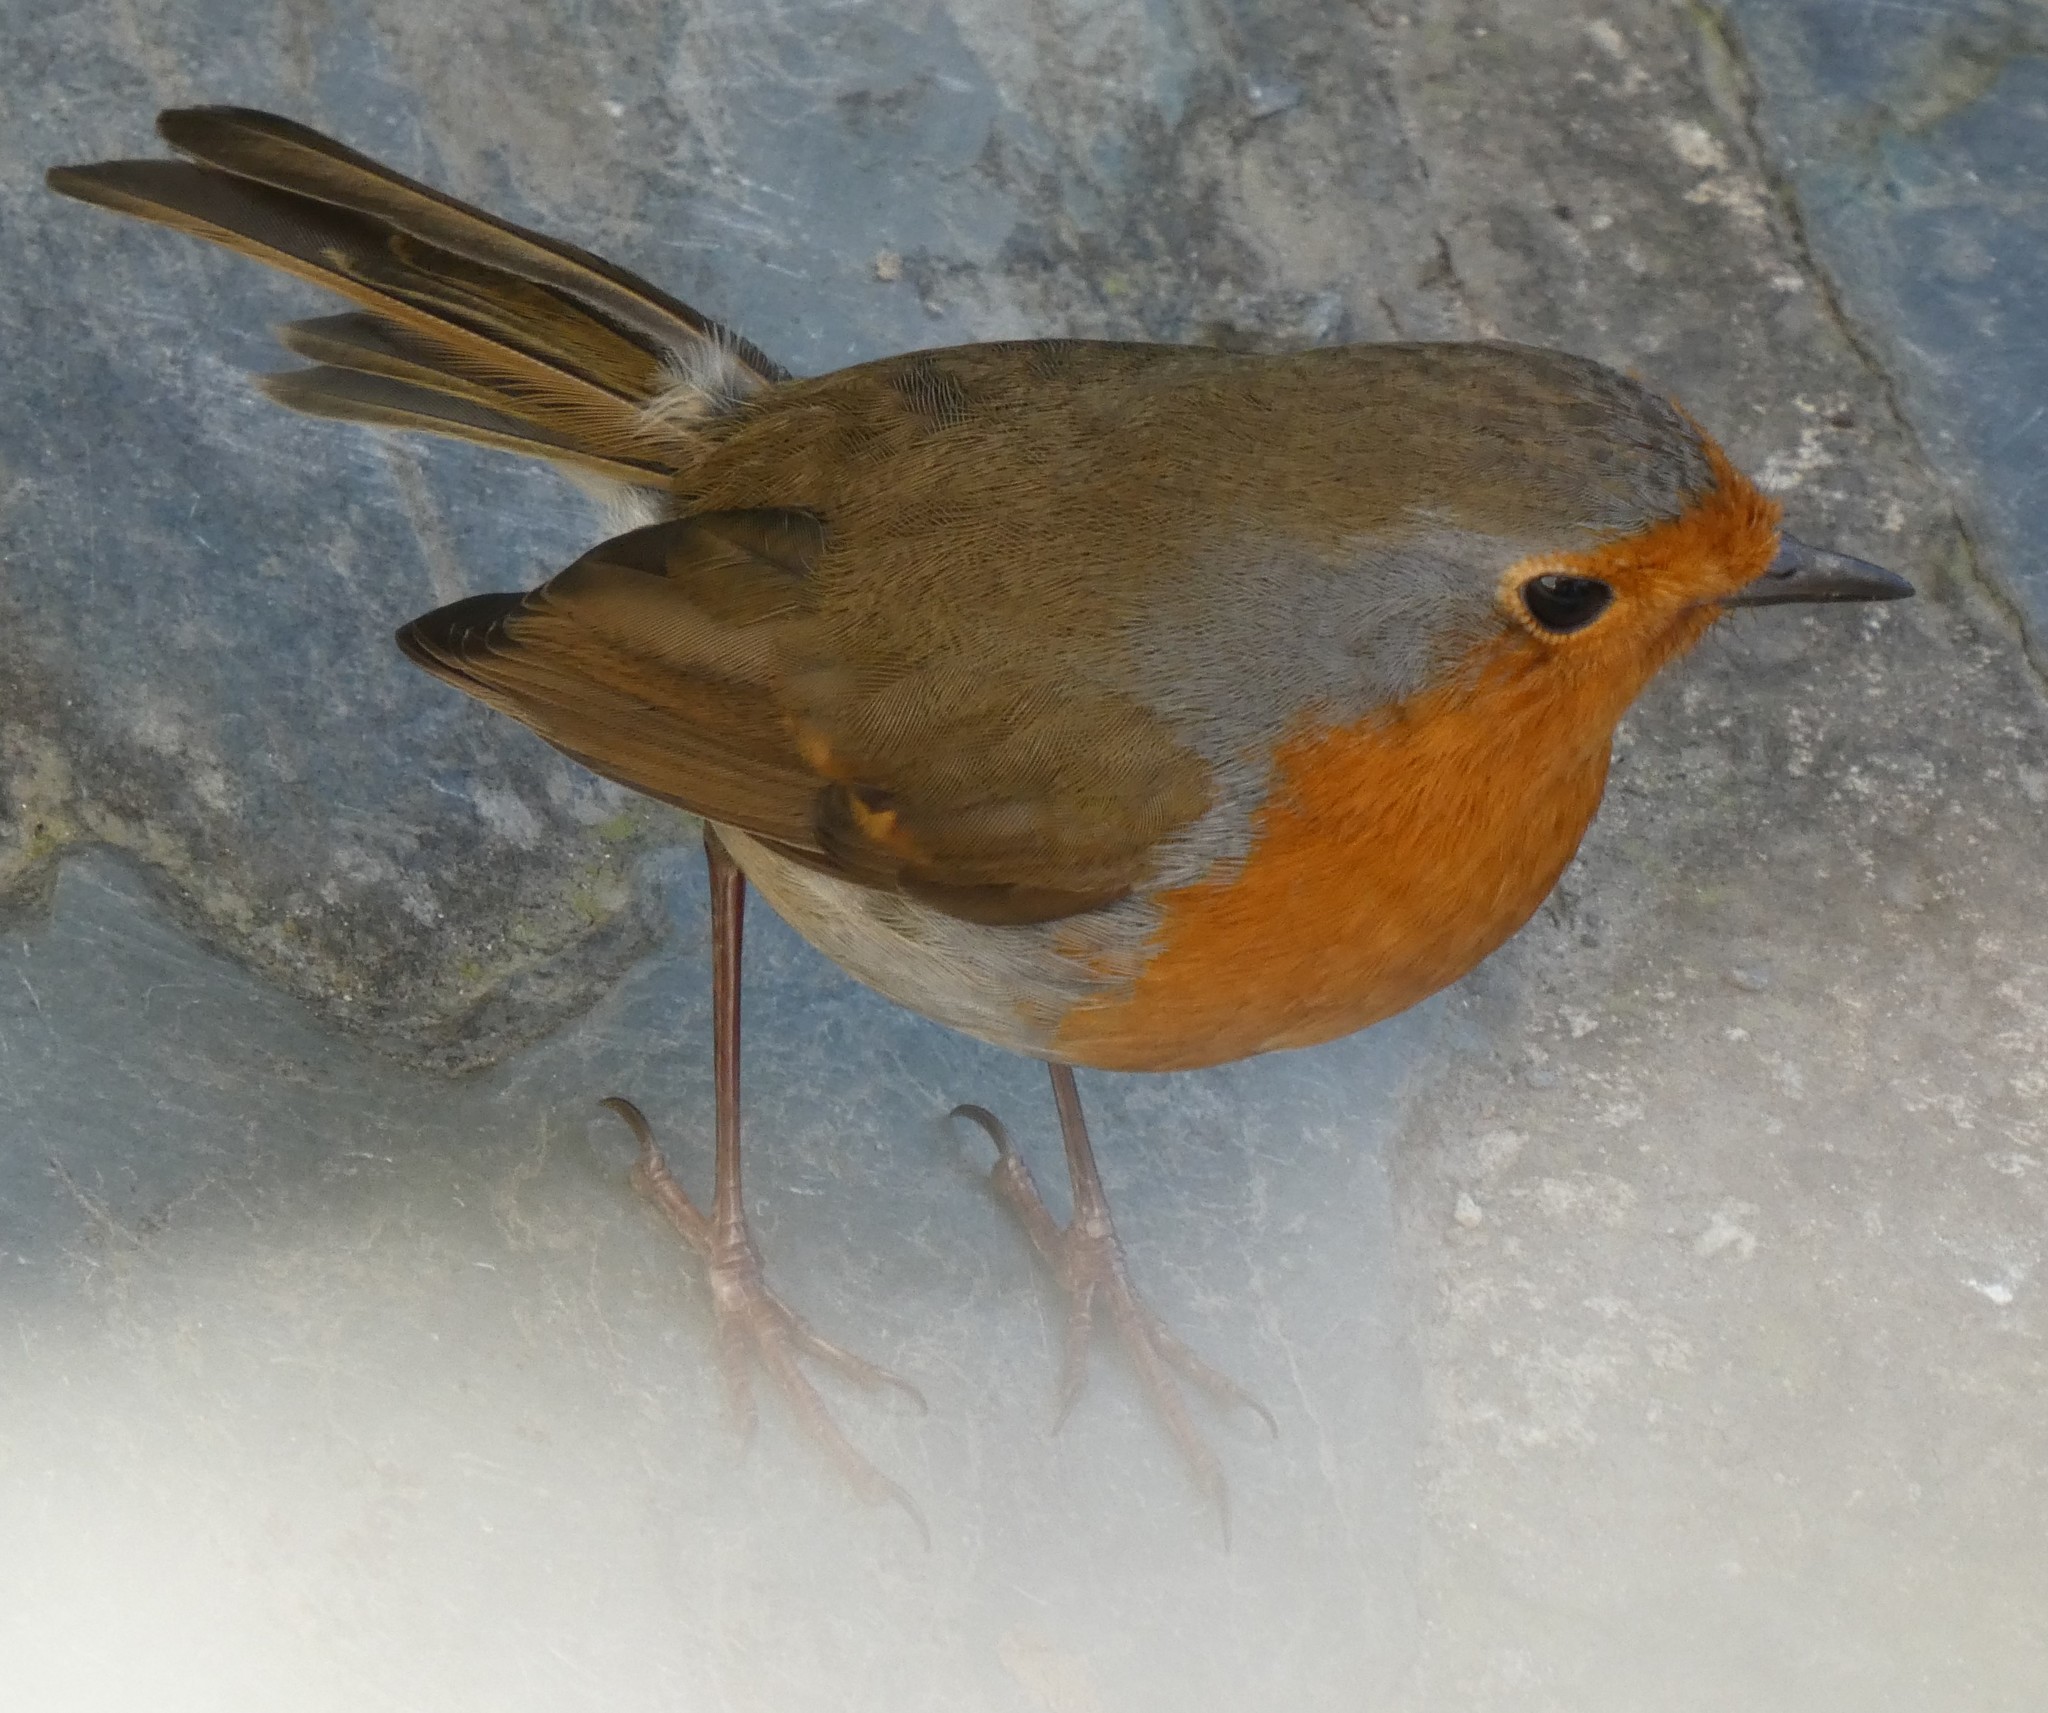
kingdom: Animalia
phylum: Chordata
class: Aves
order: Passeriformes
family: Muscicapidae
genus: Erithacus
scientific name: Erithacus rubecula
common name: European robin
